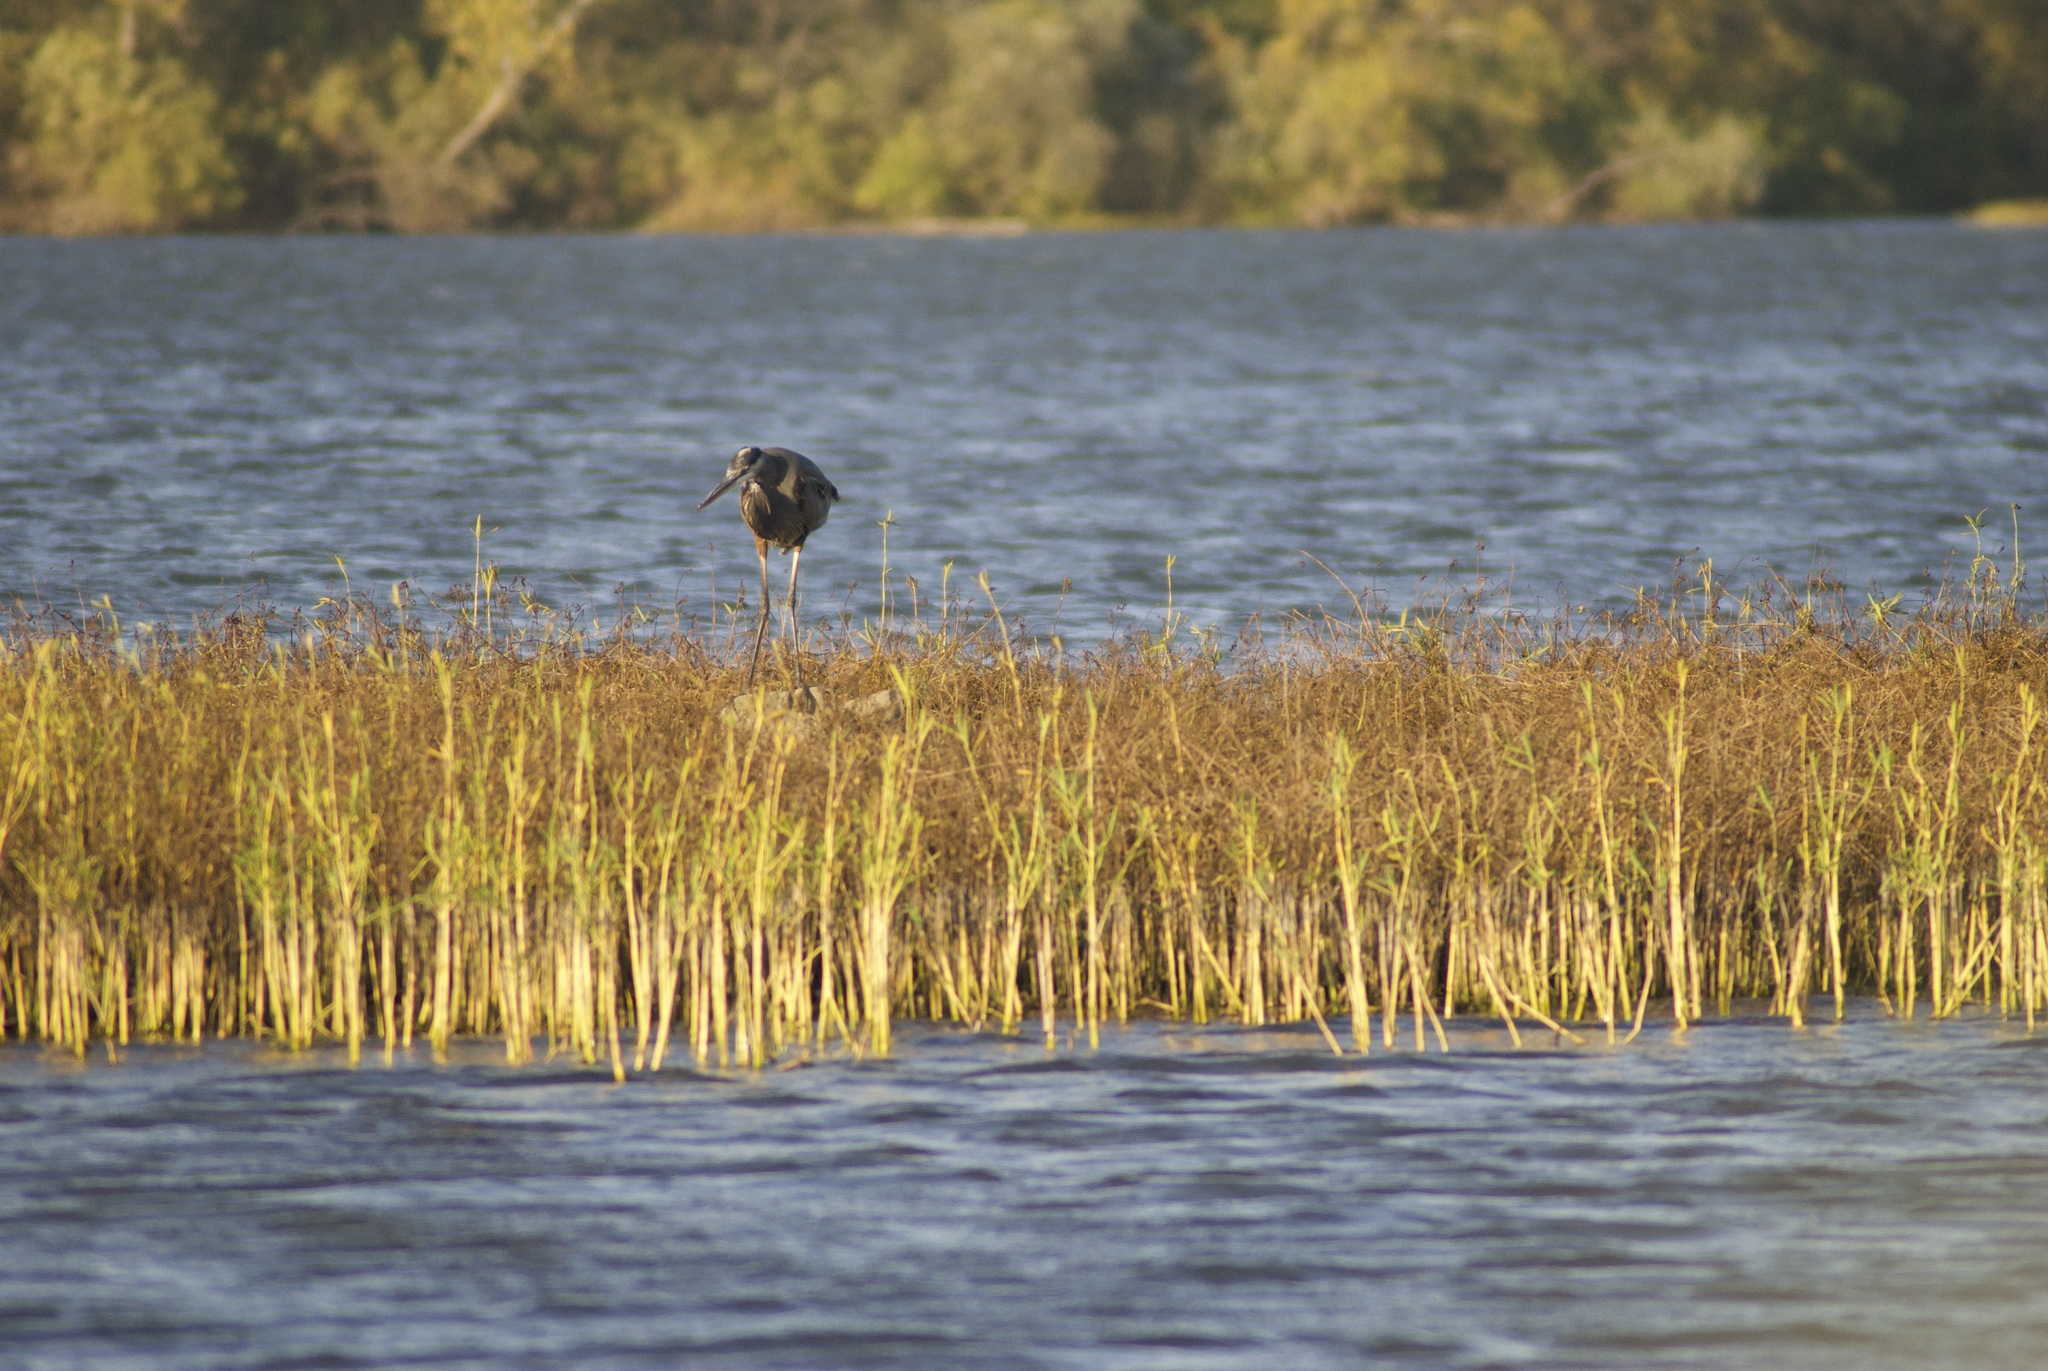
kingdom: Animalia
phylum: Chordata
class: Aves
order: Pelecaniformes
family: Ardeidae
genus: Ardea
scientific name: Ardea herodias
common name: Great blue heron
